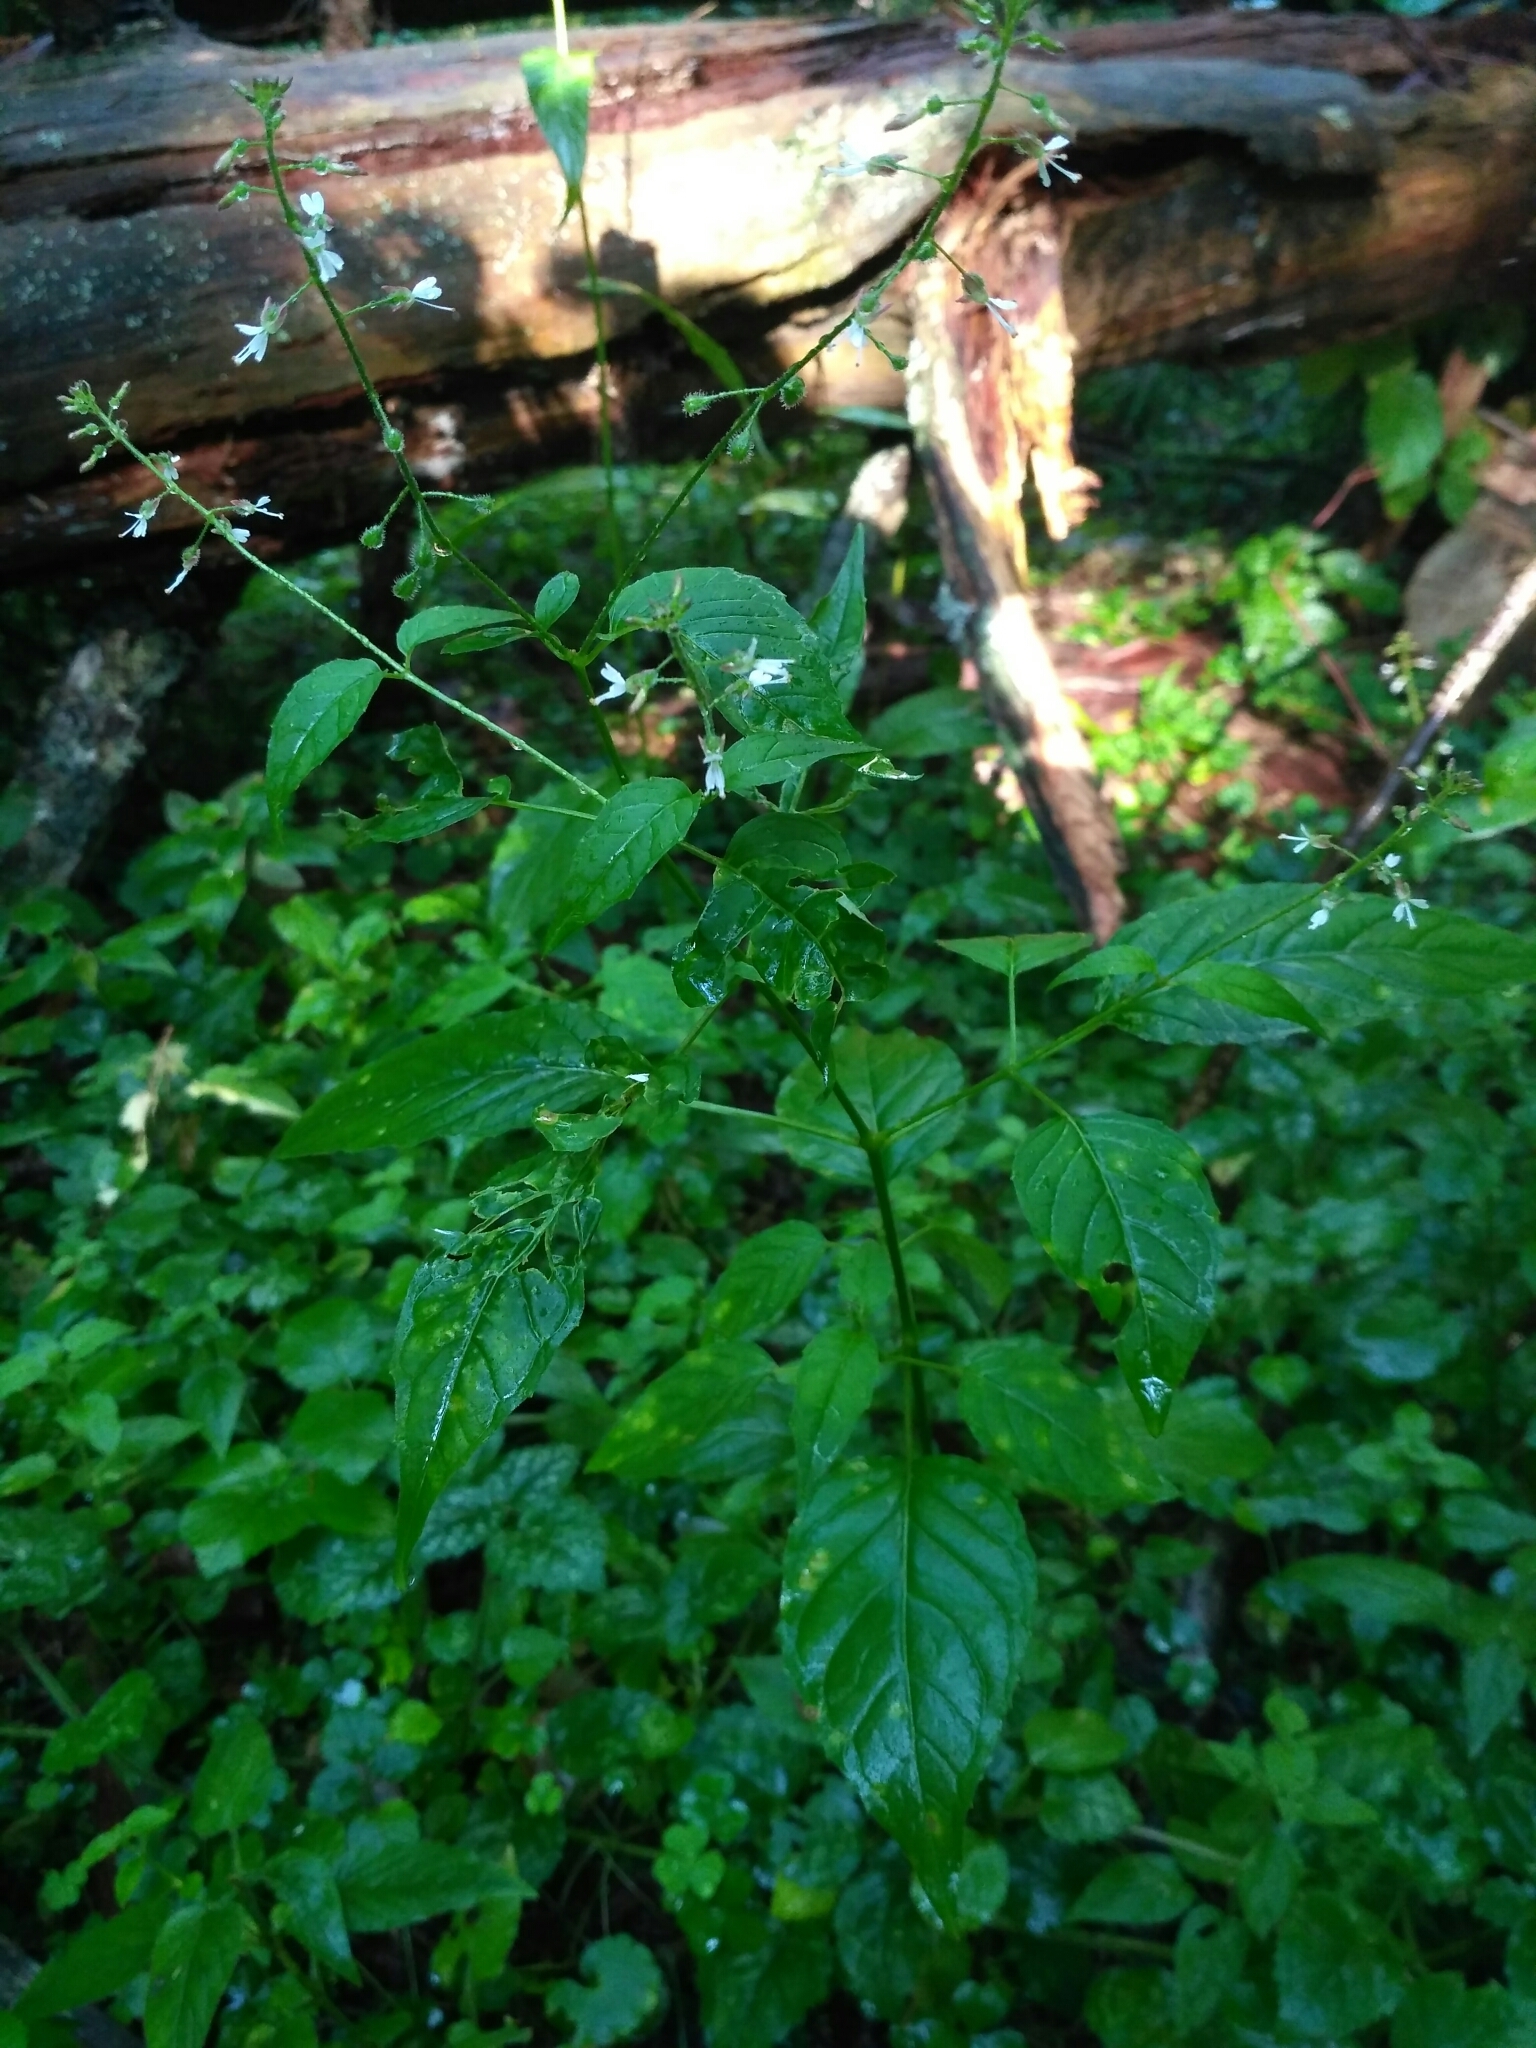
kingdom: Plantae
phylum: Tracheophyta
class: Magnoliopsida
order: Myrtales
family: Onagraceae
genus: Circaea
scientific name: Circaea lutetiana
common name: Enchanter's-nightshade
